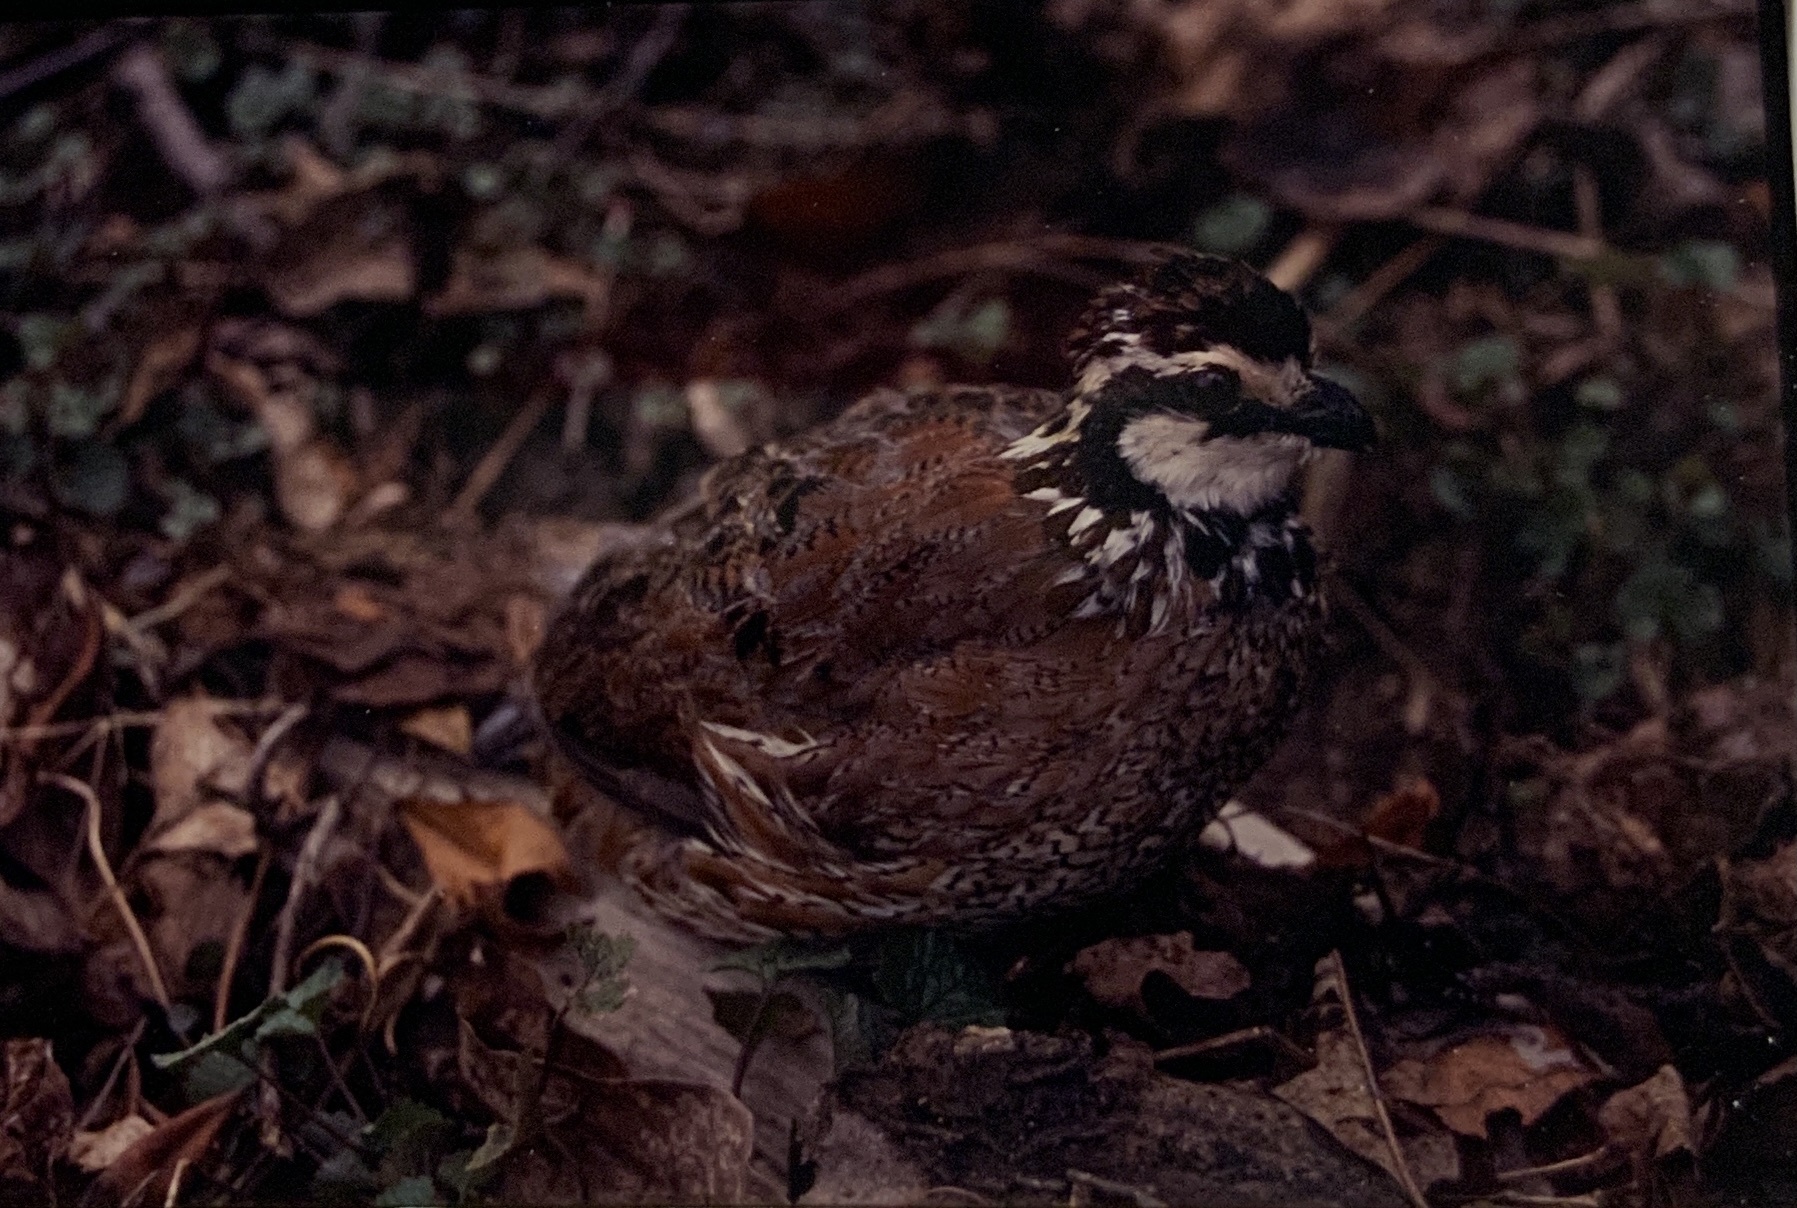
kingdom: Animalia
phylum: Chordata
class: Aves
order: Galliformes
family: Odontophoridae
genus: Colinus
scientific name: Colinus virginianus
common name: Northern bobwhite
